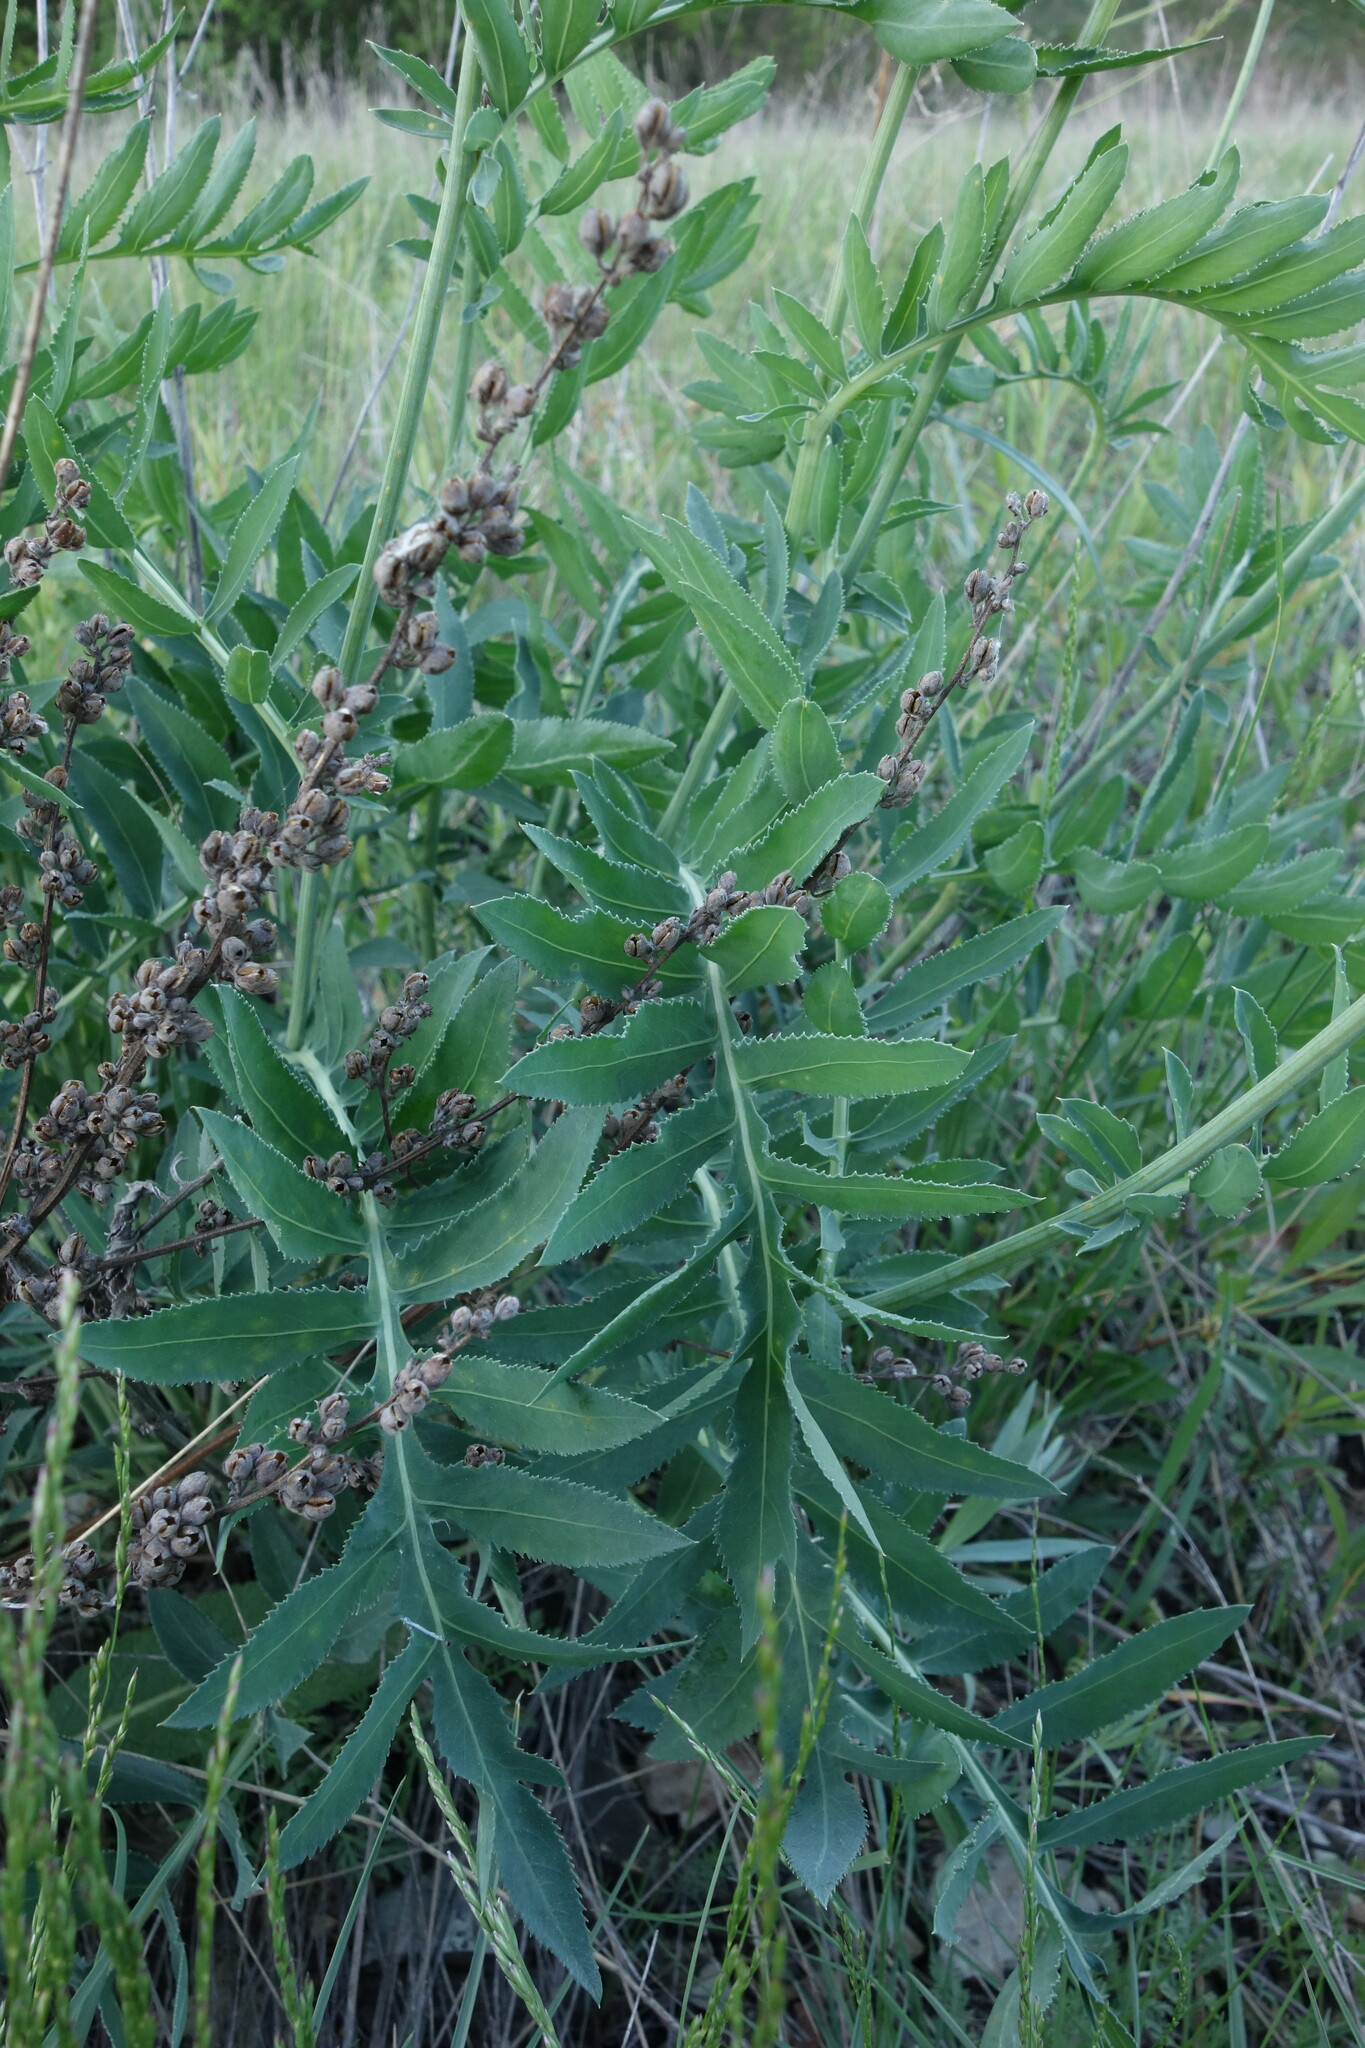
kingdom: Plantae
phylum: Tracheophyta
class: Magnoliopsida
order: Asterales
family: Asteraceae
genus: Rhaponticoides
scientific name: Rhaponticoides ruthenica
